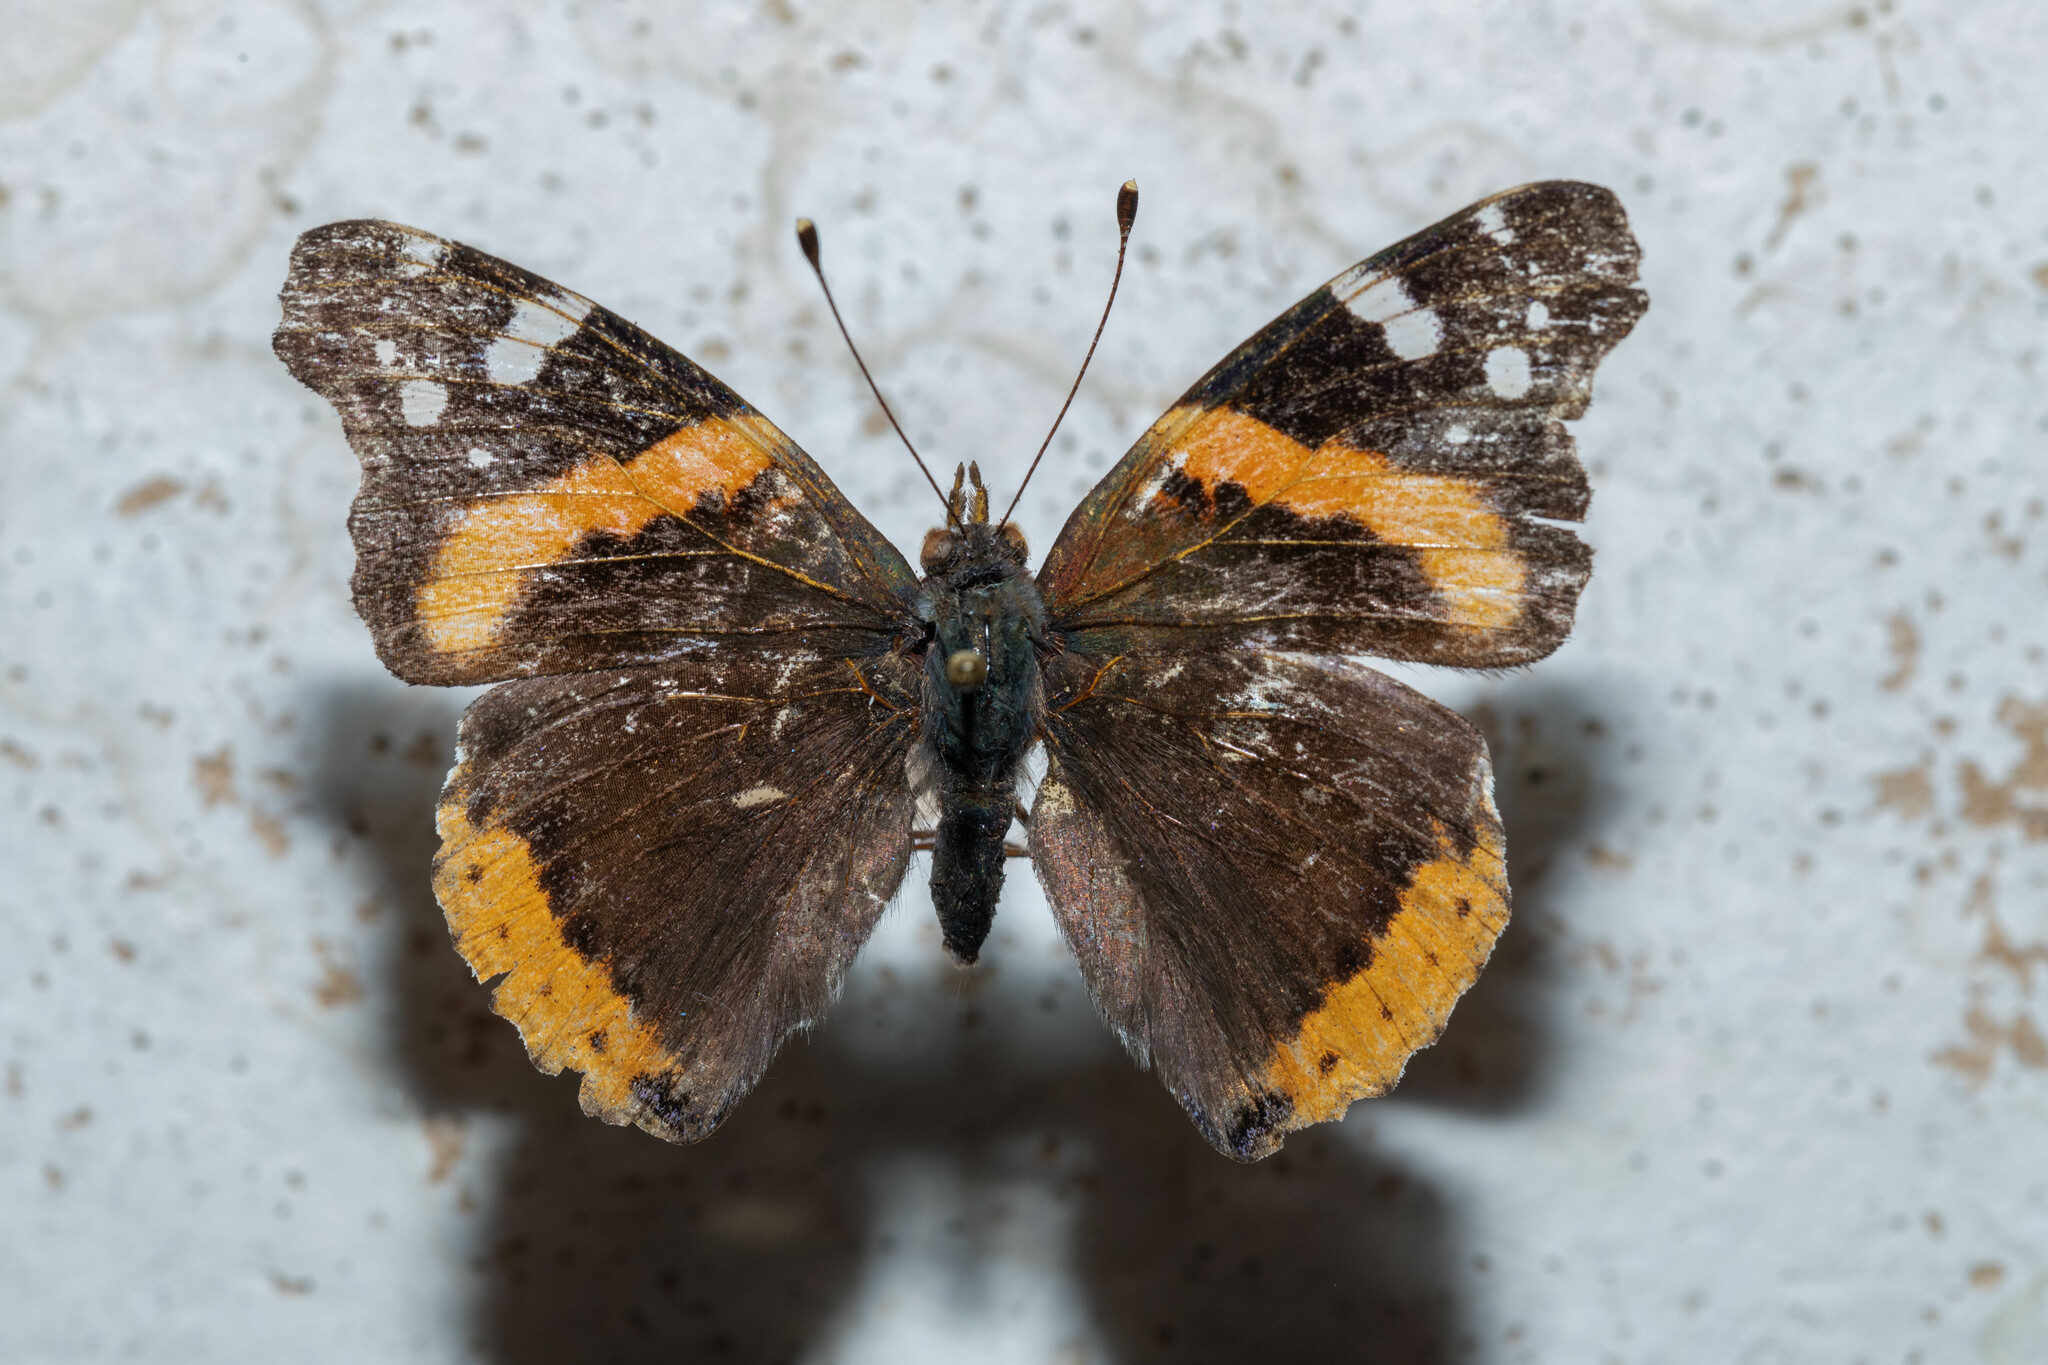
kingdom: Animalia
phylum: Arthropoda
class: Insecta
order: Lepidoptera
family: Nymphalidae
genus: Vanessa
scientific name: Vanessa atalanta
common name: Red admiral
